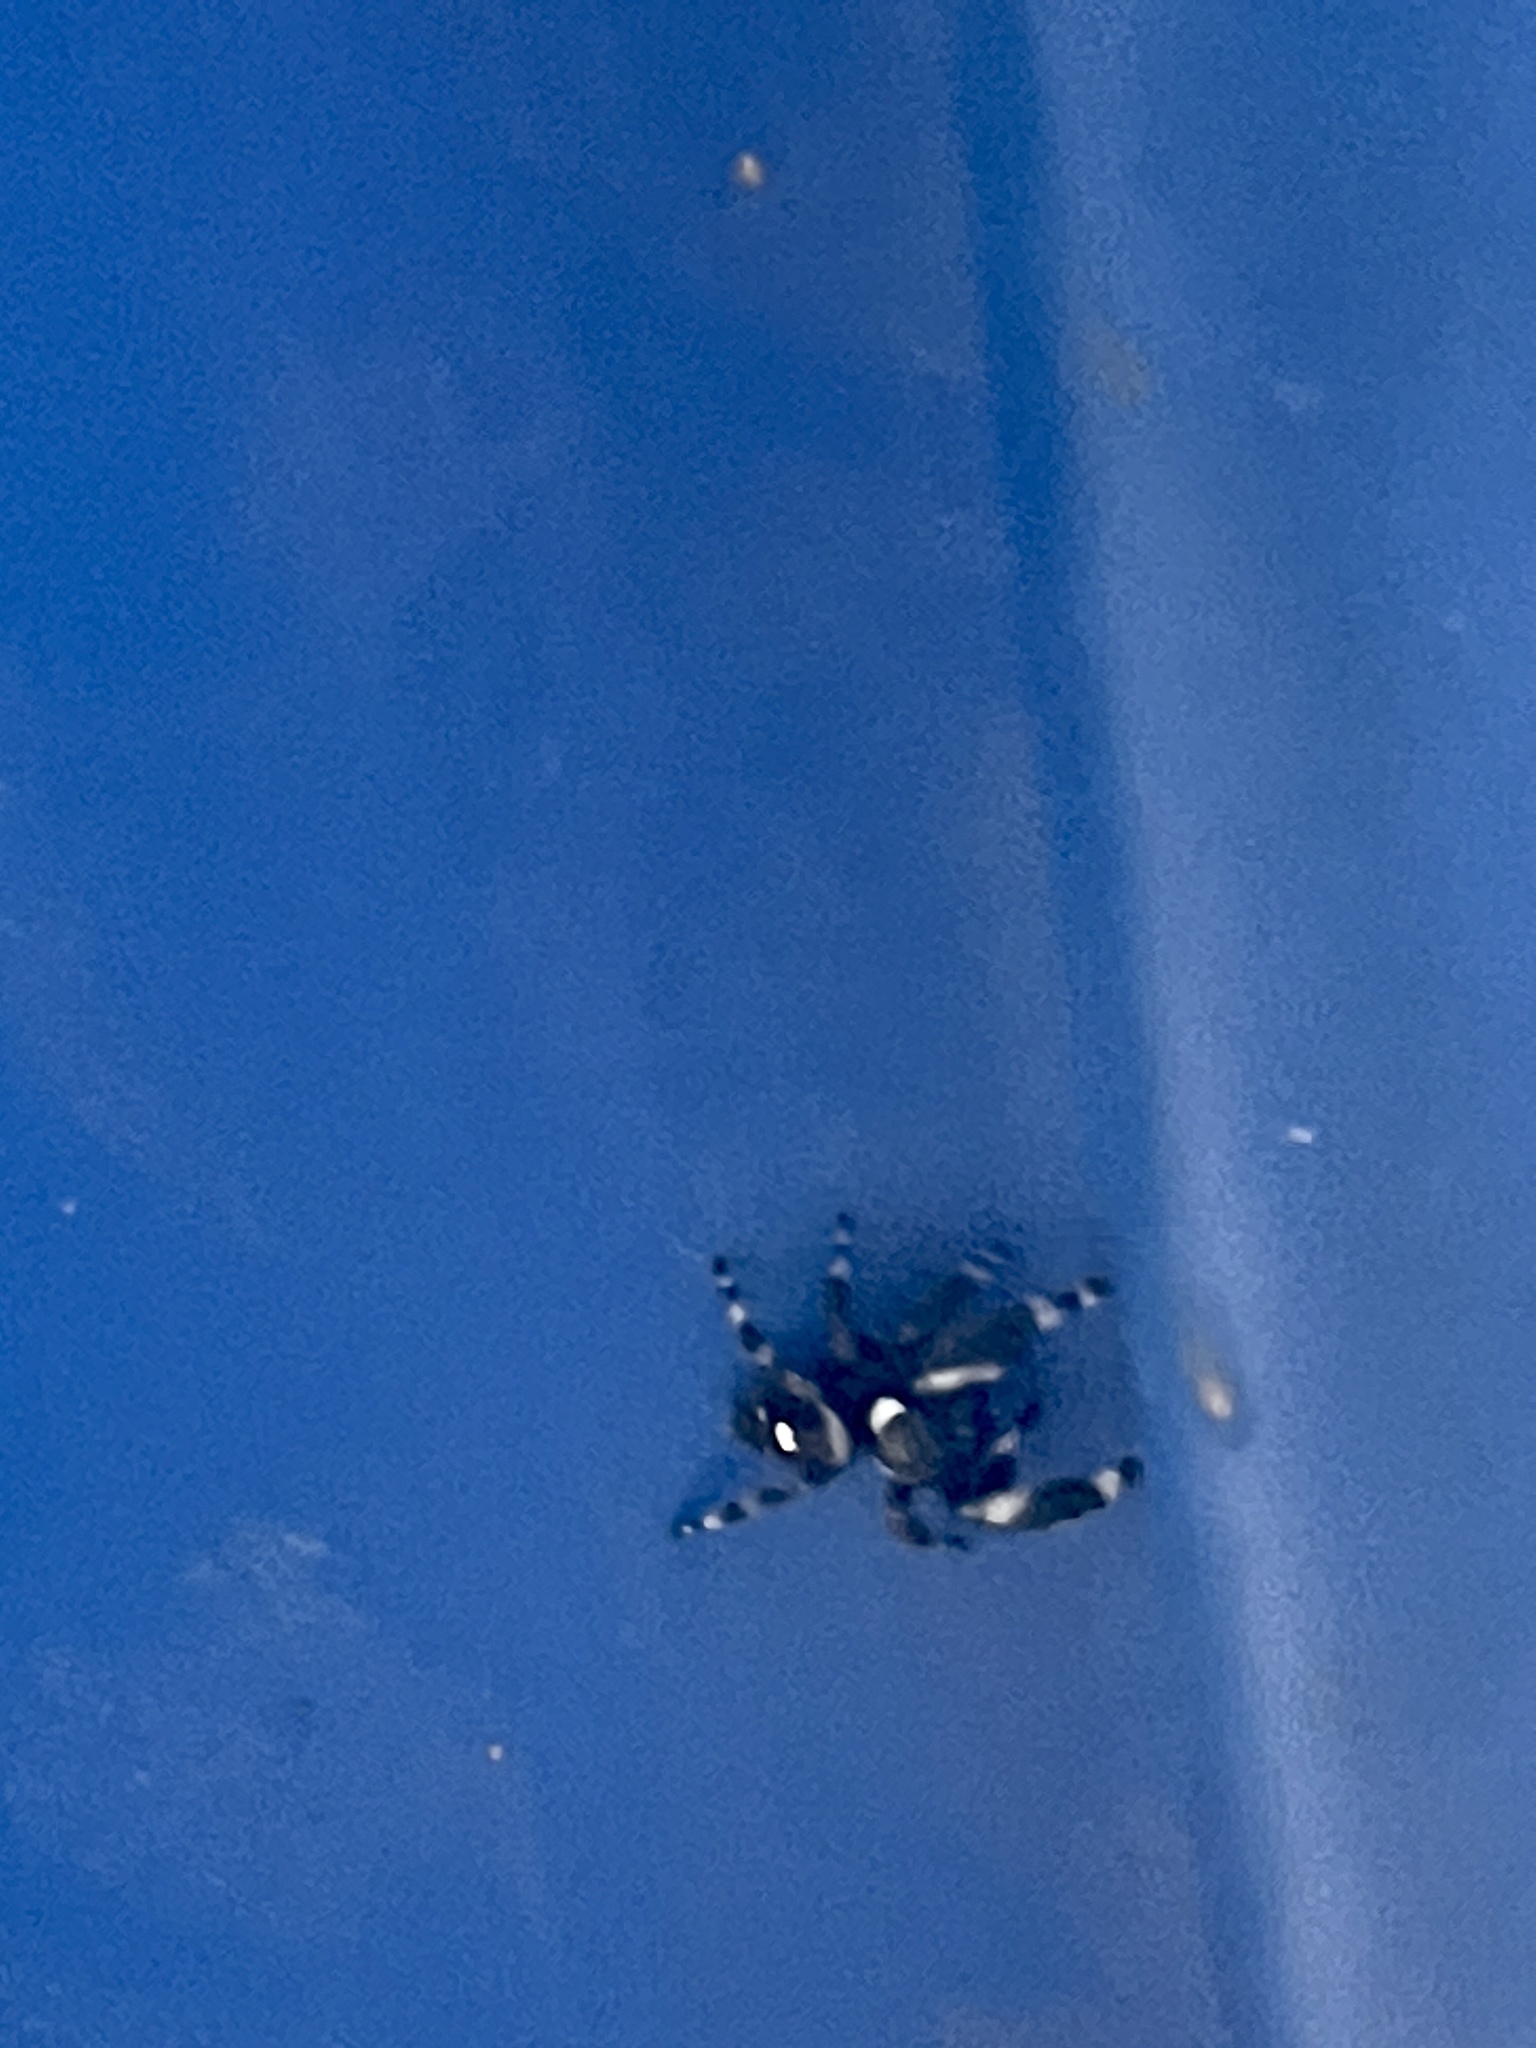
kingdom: Animalia
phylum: Arthropoda
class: Arachnida
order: Araneae
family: Salticidae
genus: Phidippus
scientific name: Phidippus audax
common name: Bold jumper
